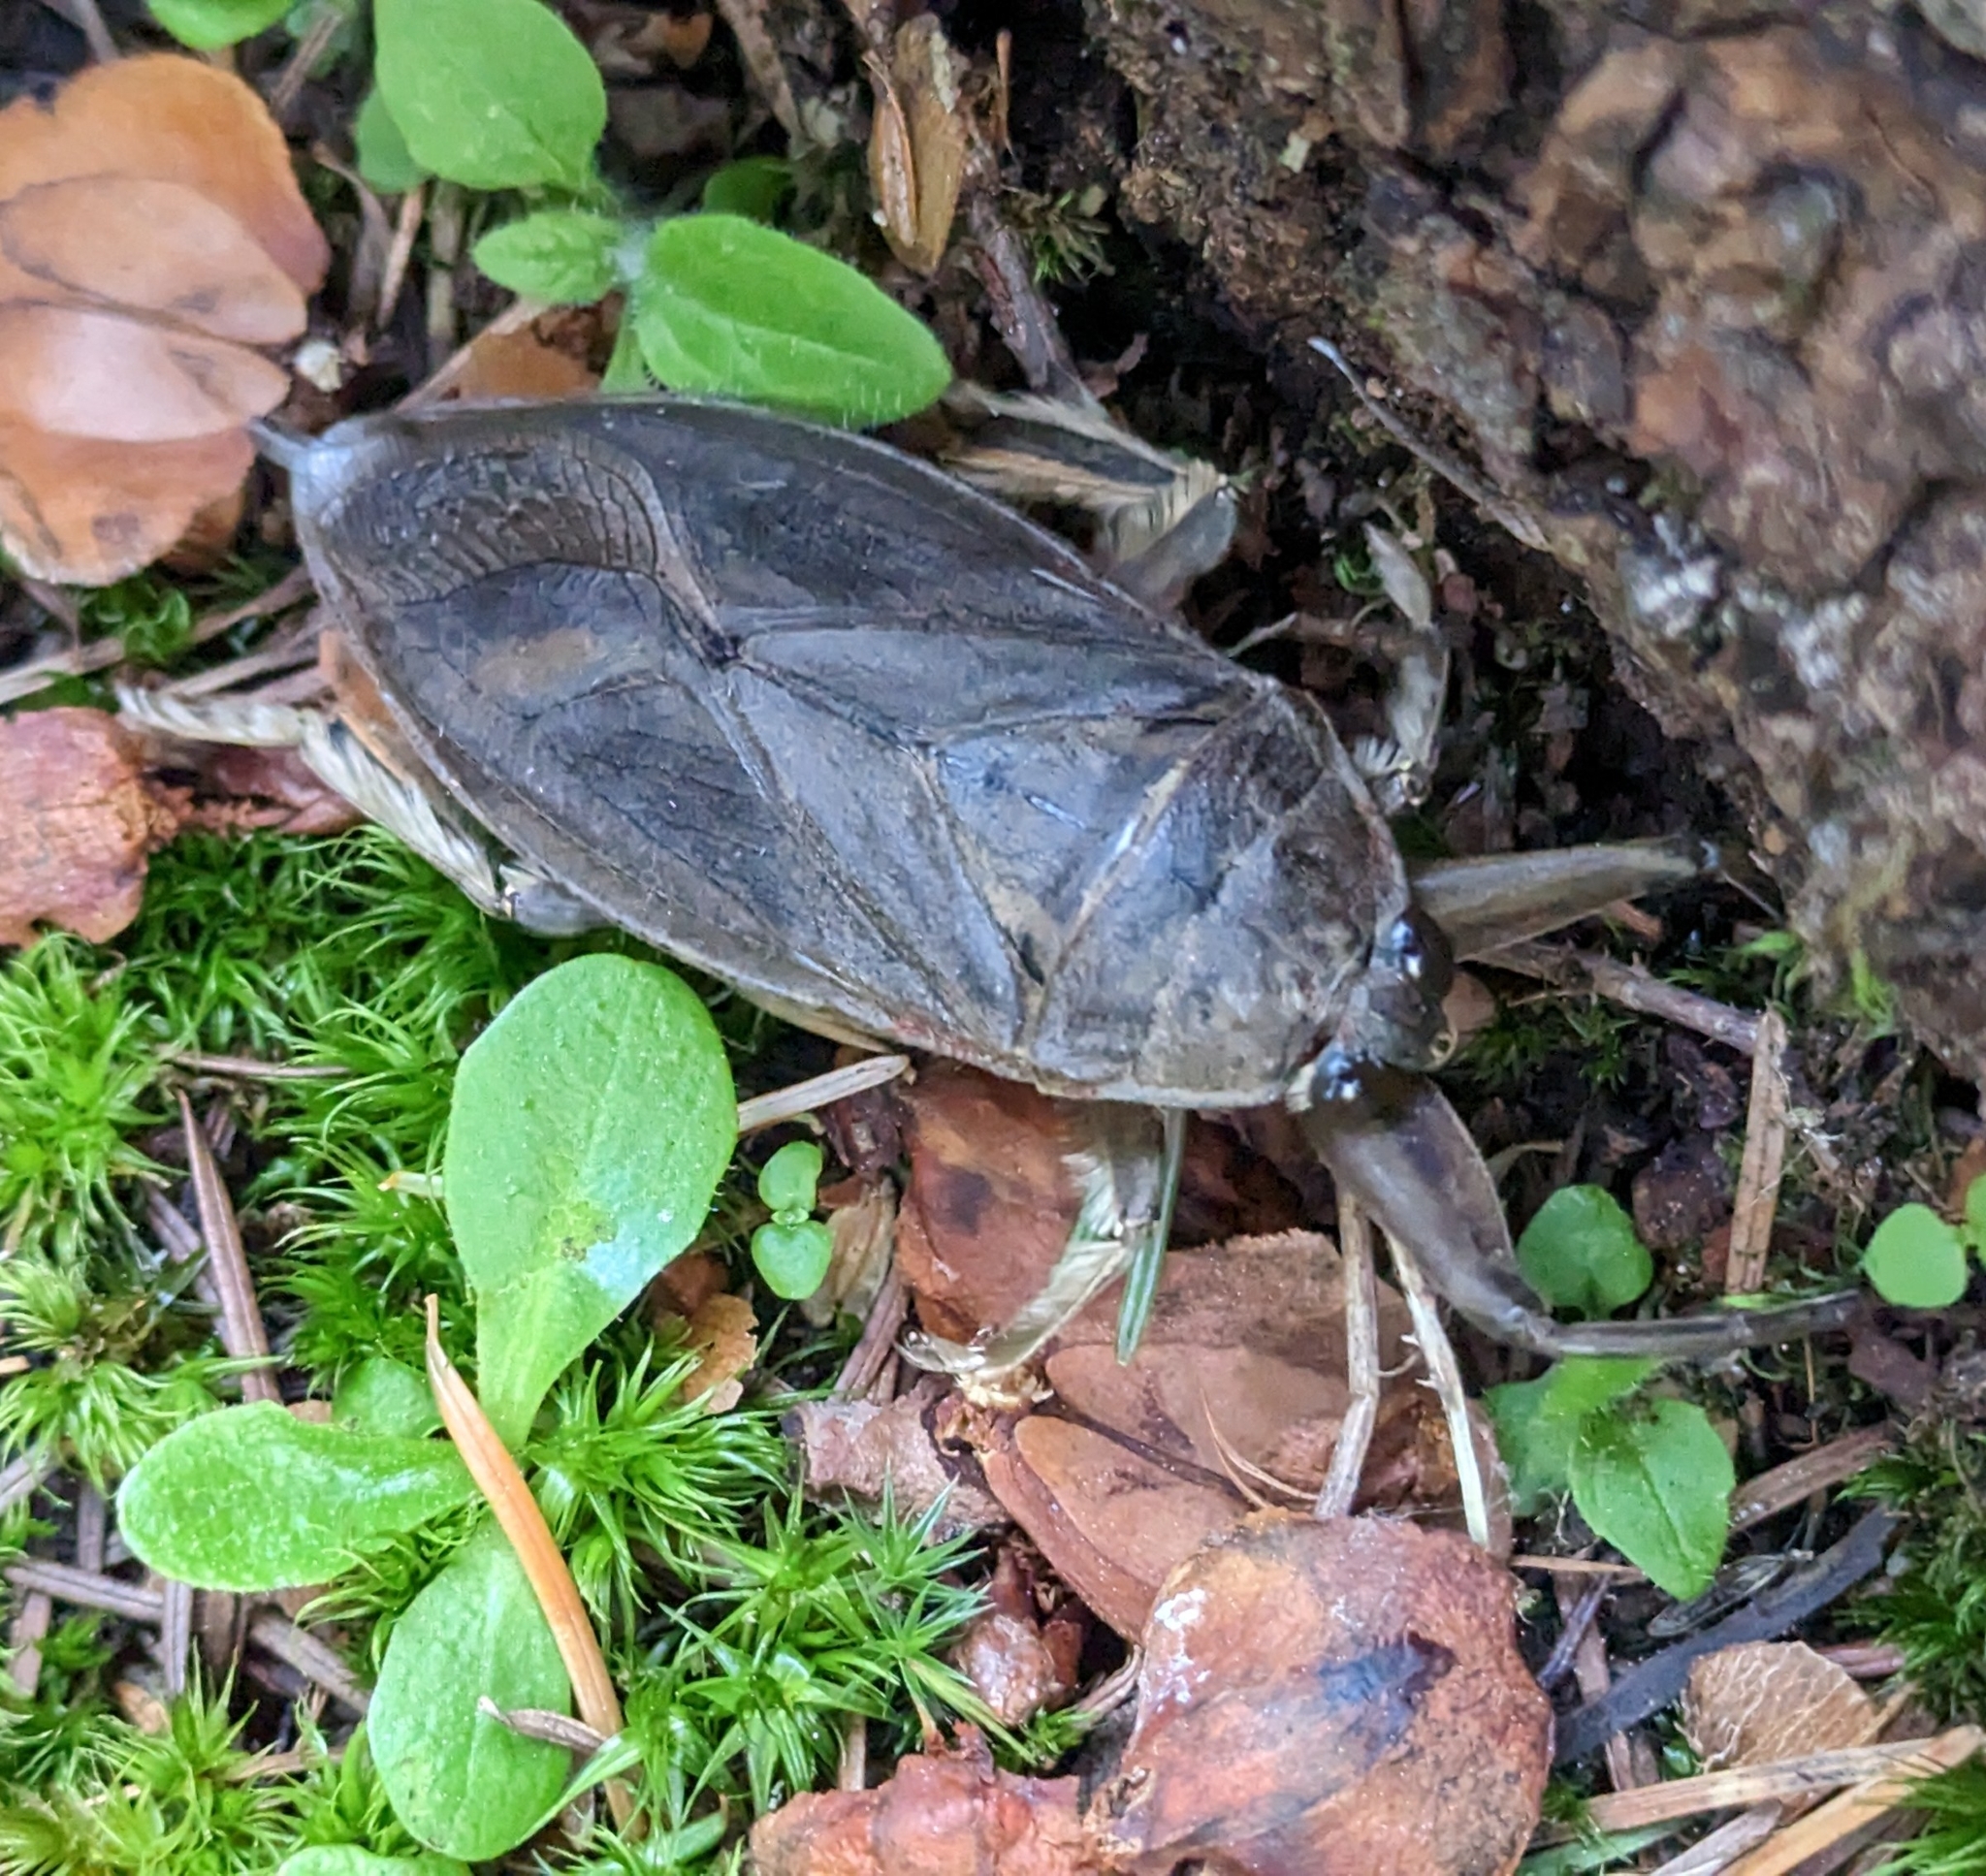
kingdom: Animalia
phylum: Arthropoda
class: Insecta
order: Hemiptera
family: Belostomatidae
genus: Lethocerus
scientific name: Lethocerus americanus
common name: Giant water bug
